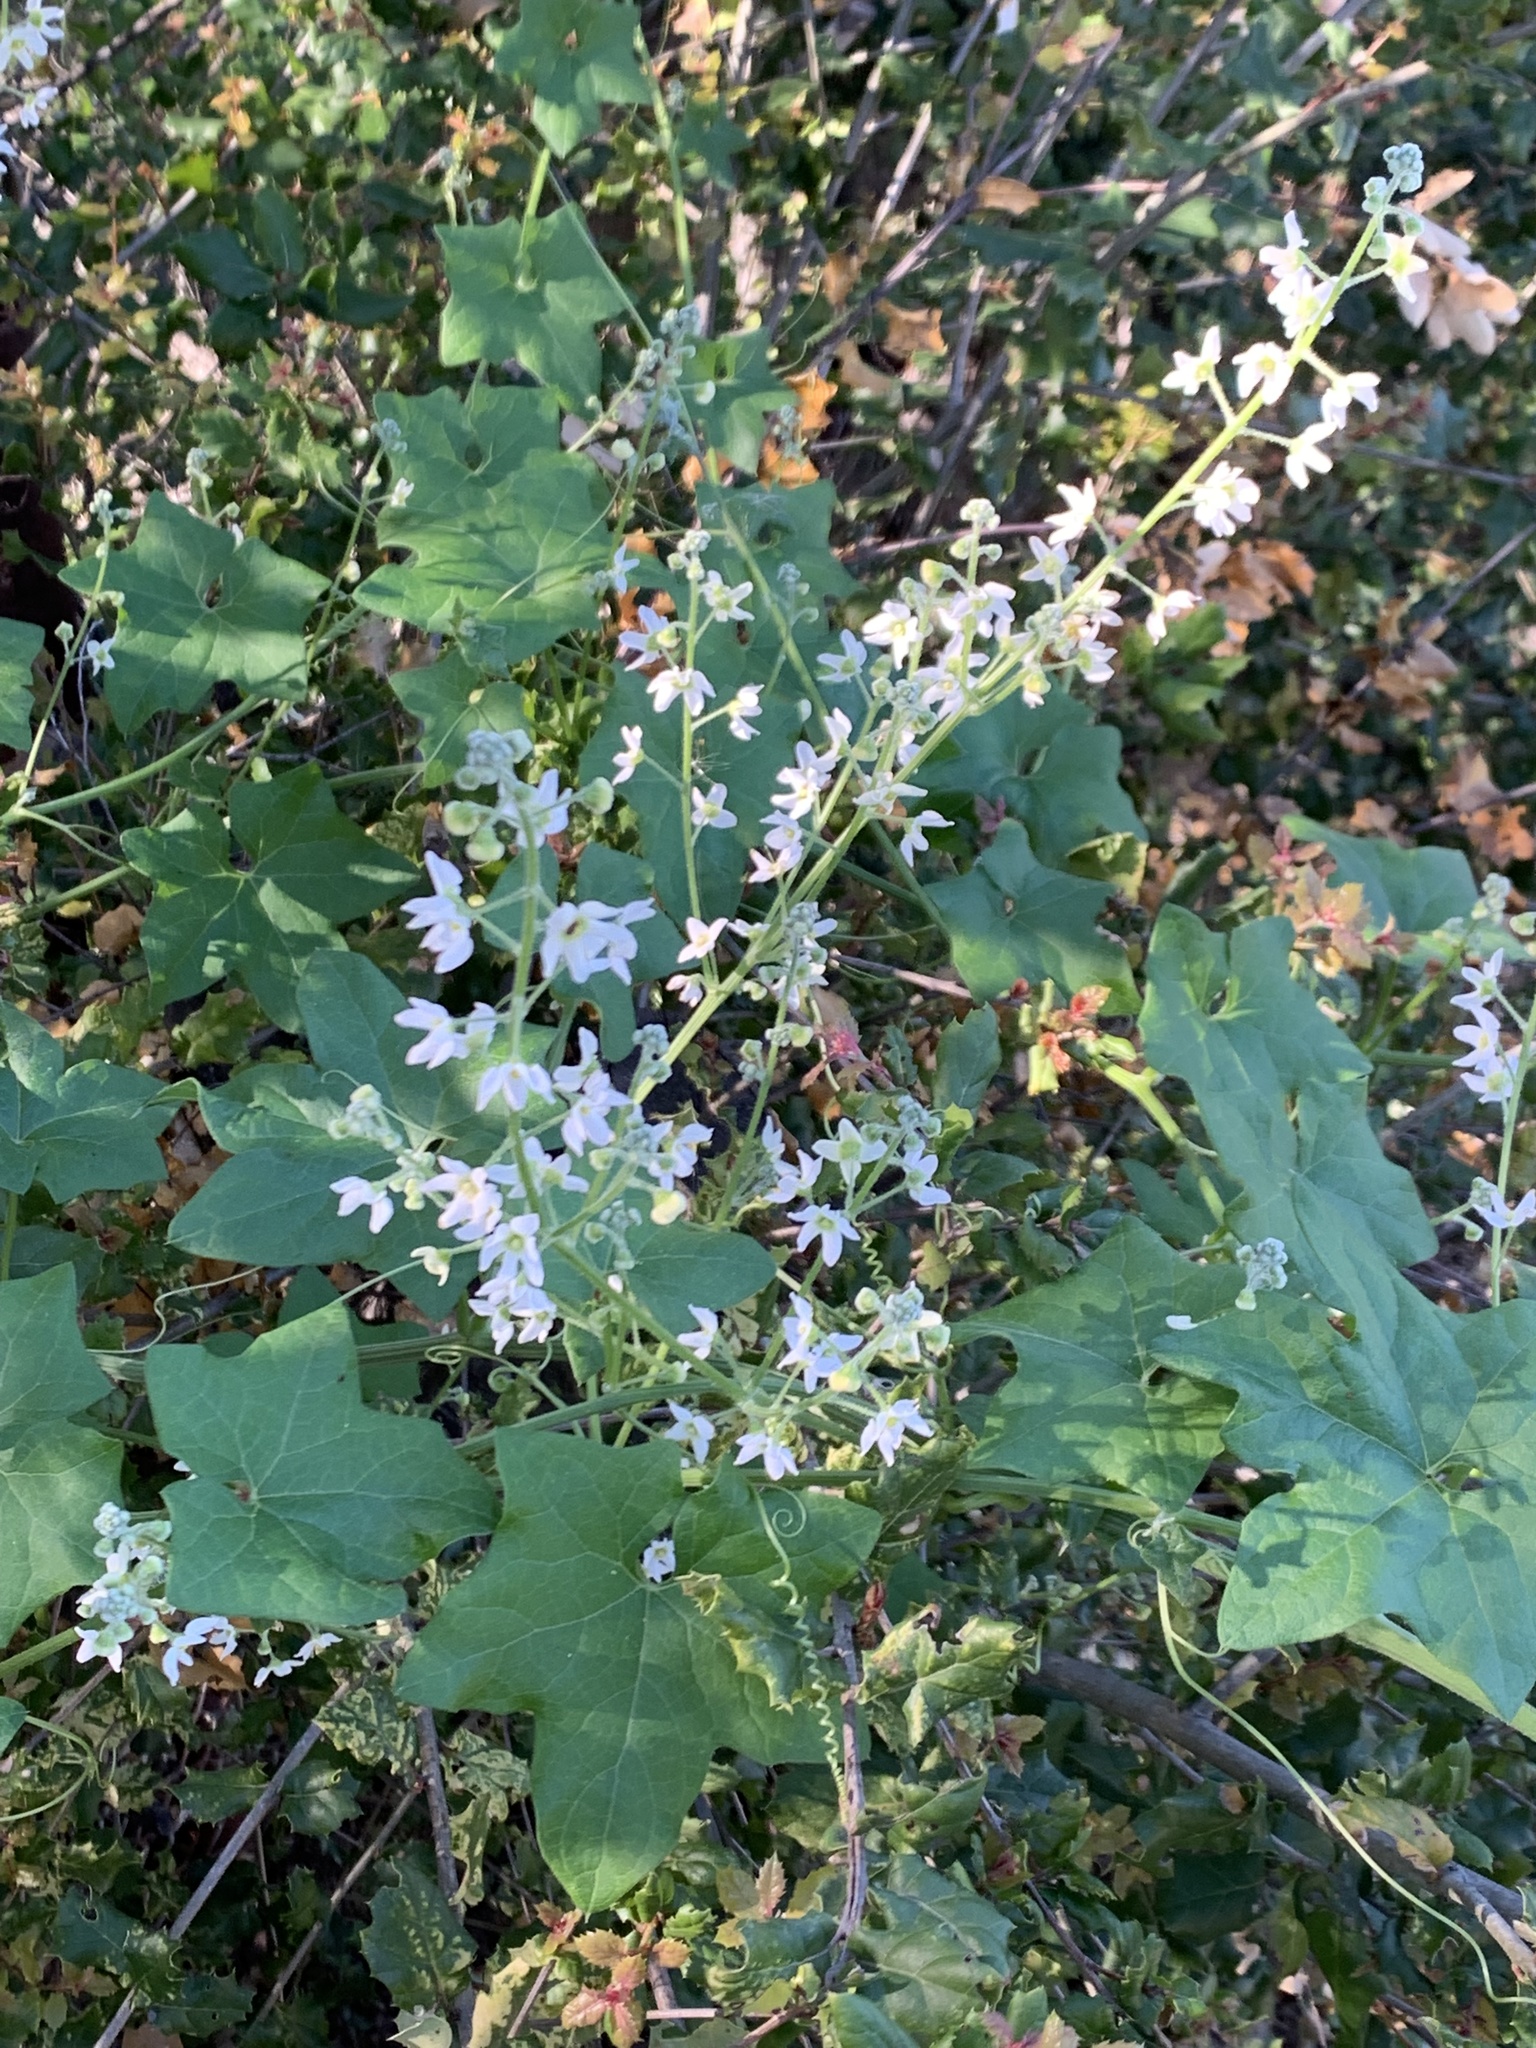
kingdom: Plantae
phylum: Tracheophyta
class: Magnoliopsida
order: Cucurbitales
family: Cucurbitaceae
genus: Marah
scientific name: Marah macrocarpa
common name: Cucamonga manroot
